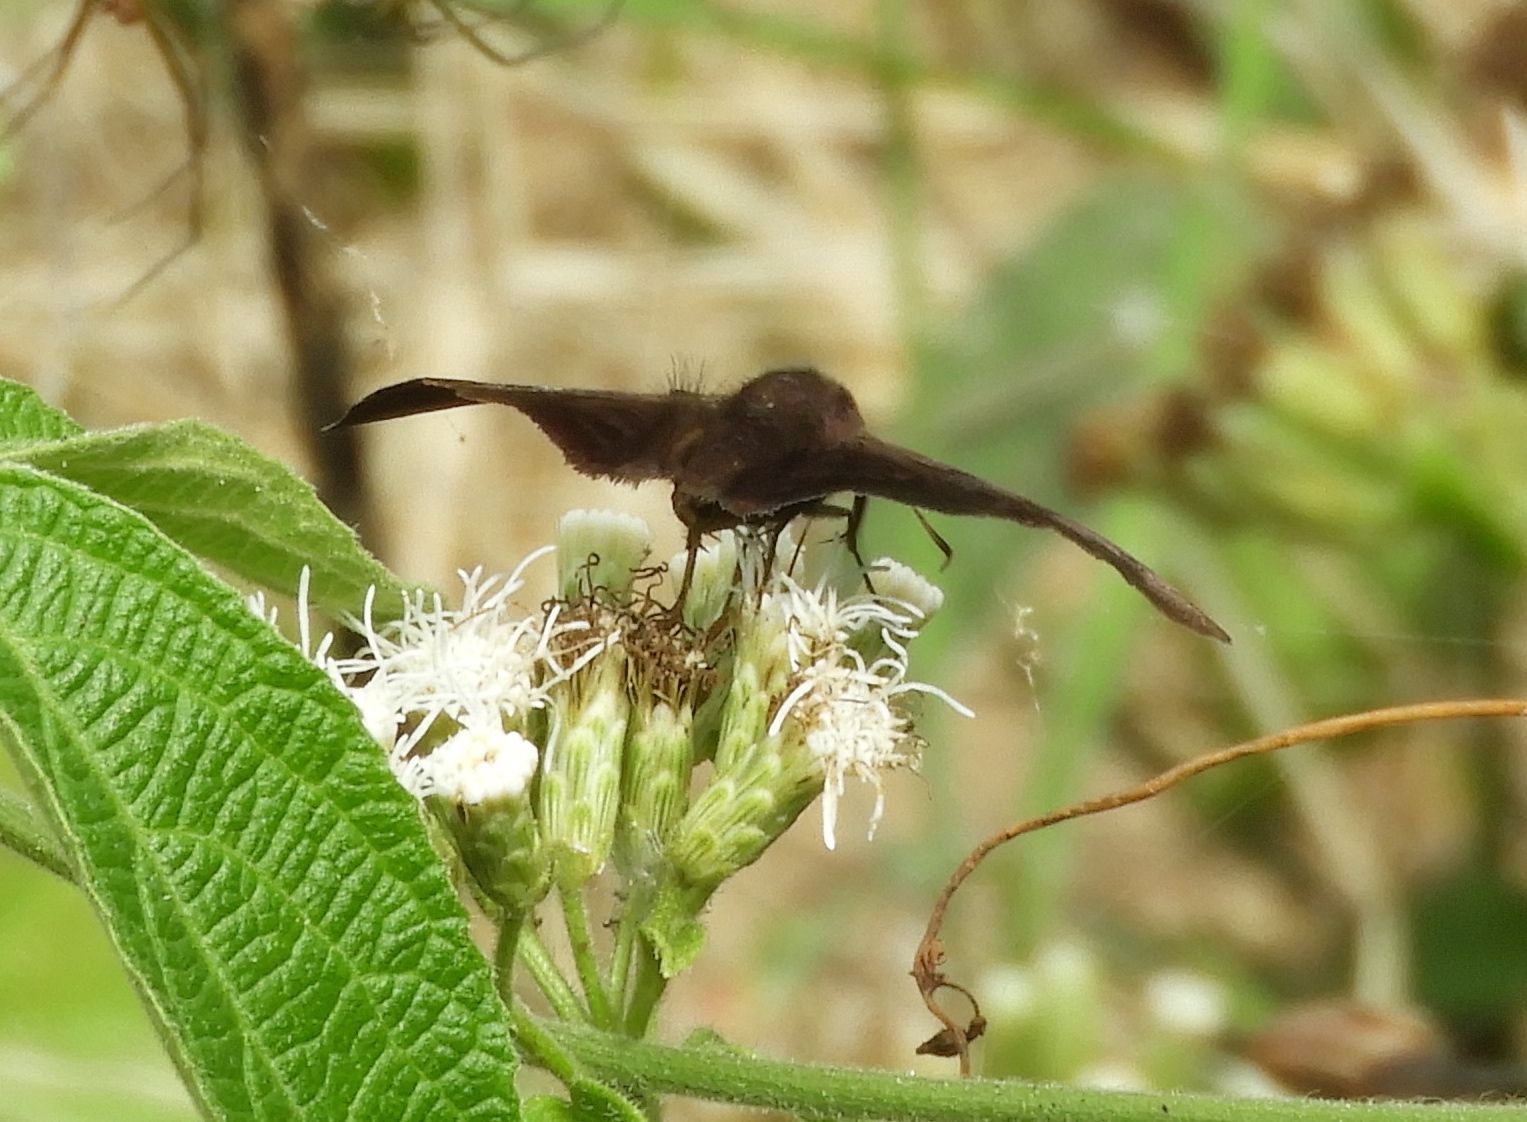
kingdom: Animalia
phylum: Arthropoda
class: Insecta
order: Lepidoptera
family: Hesperiidae
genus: Pellicia
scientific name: Pellicia
